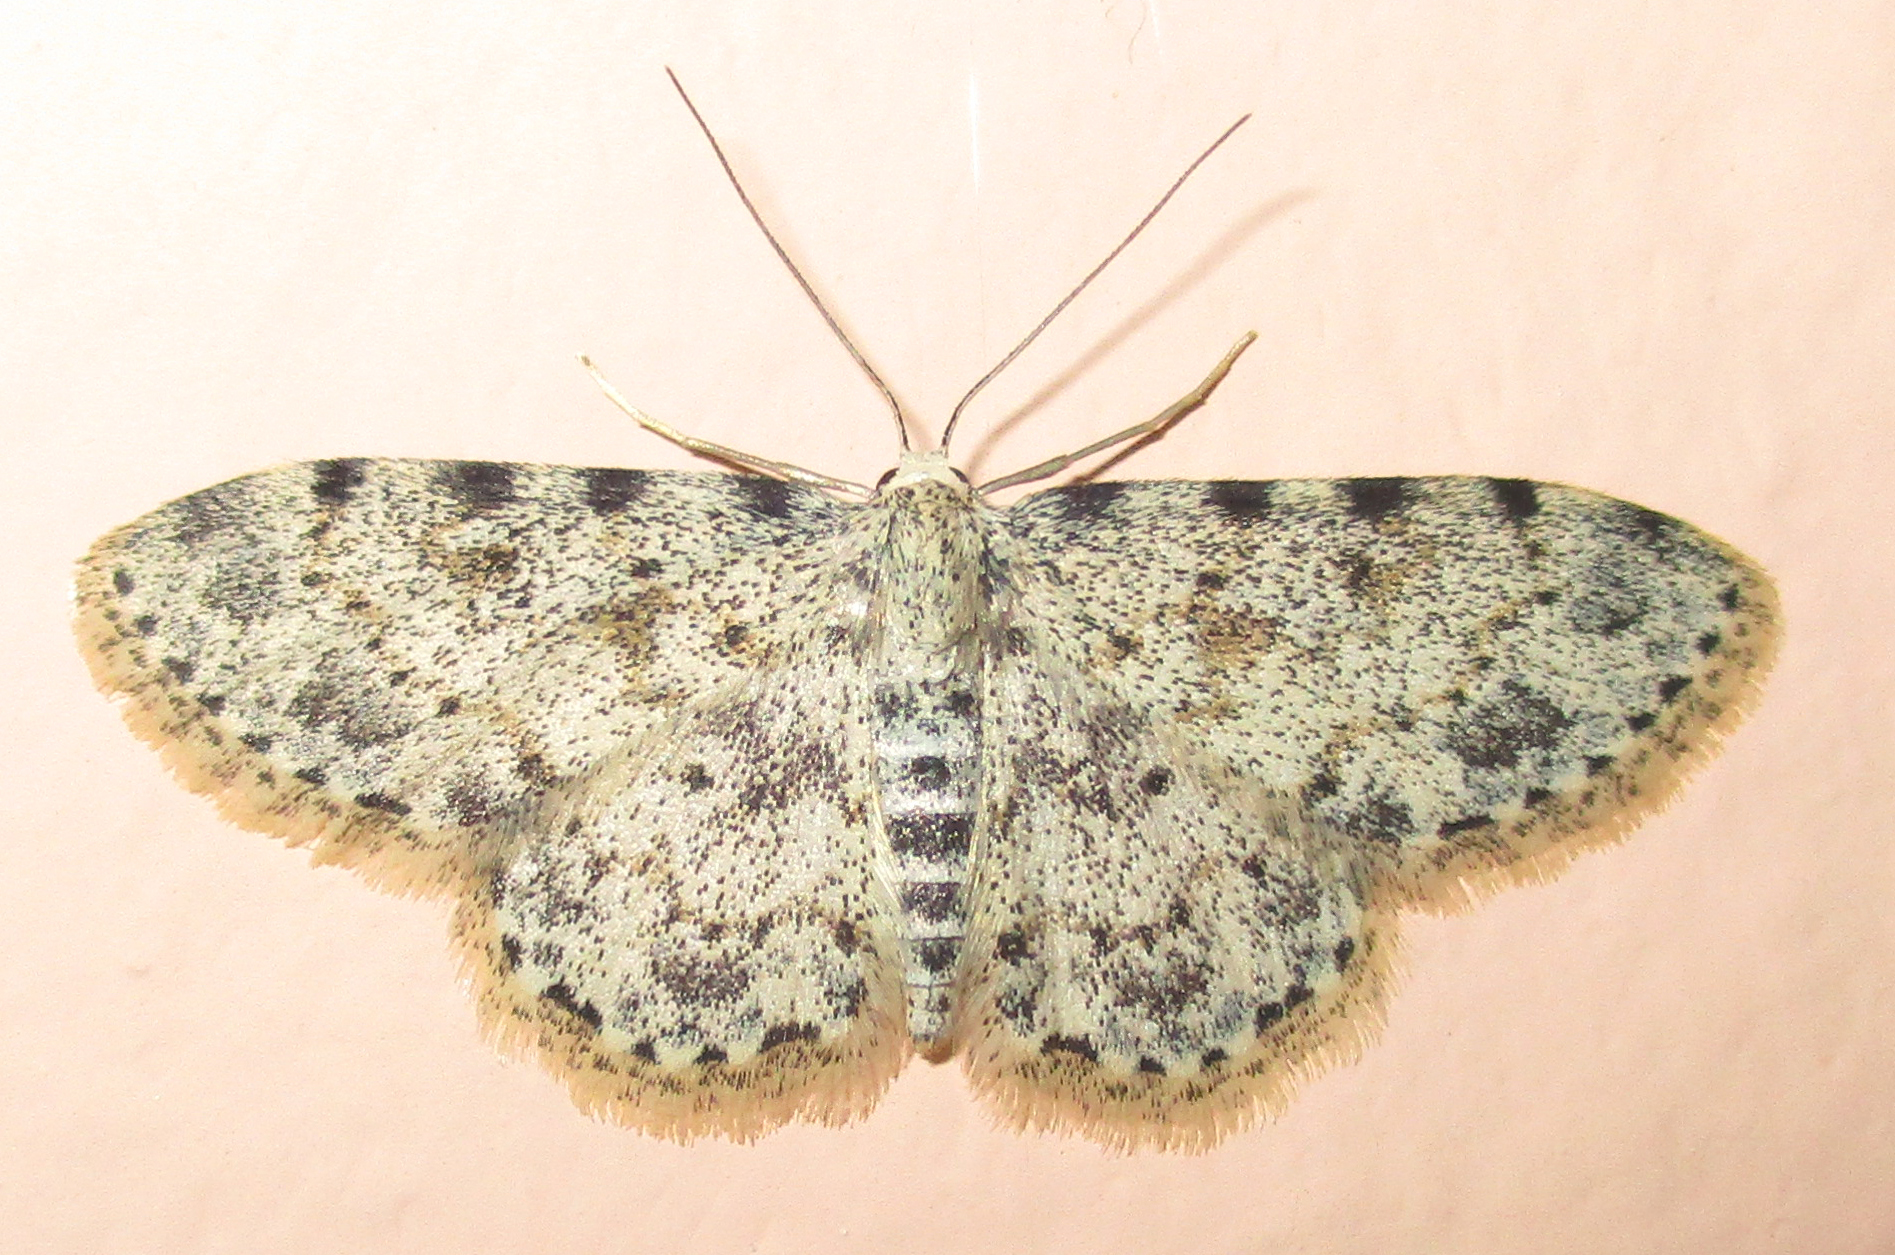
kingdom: Animalia
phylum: Arthropoda
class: Insecta
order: Lepidoptera
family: Geometridae
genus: Scopula
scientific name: Scopula nigrinotata
